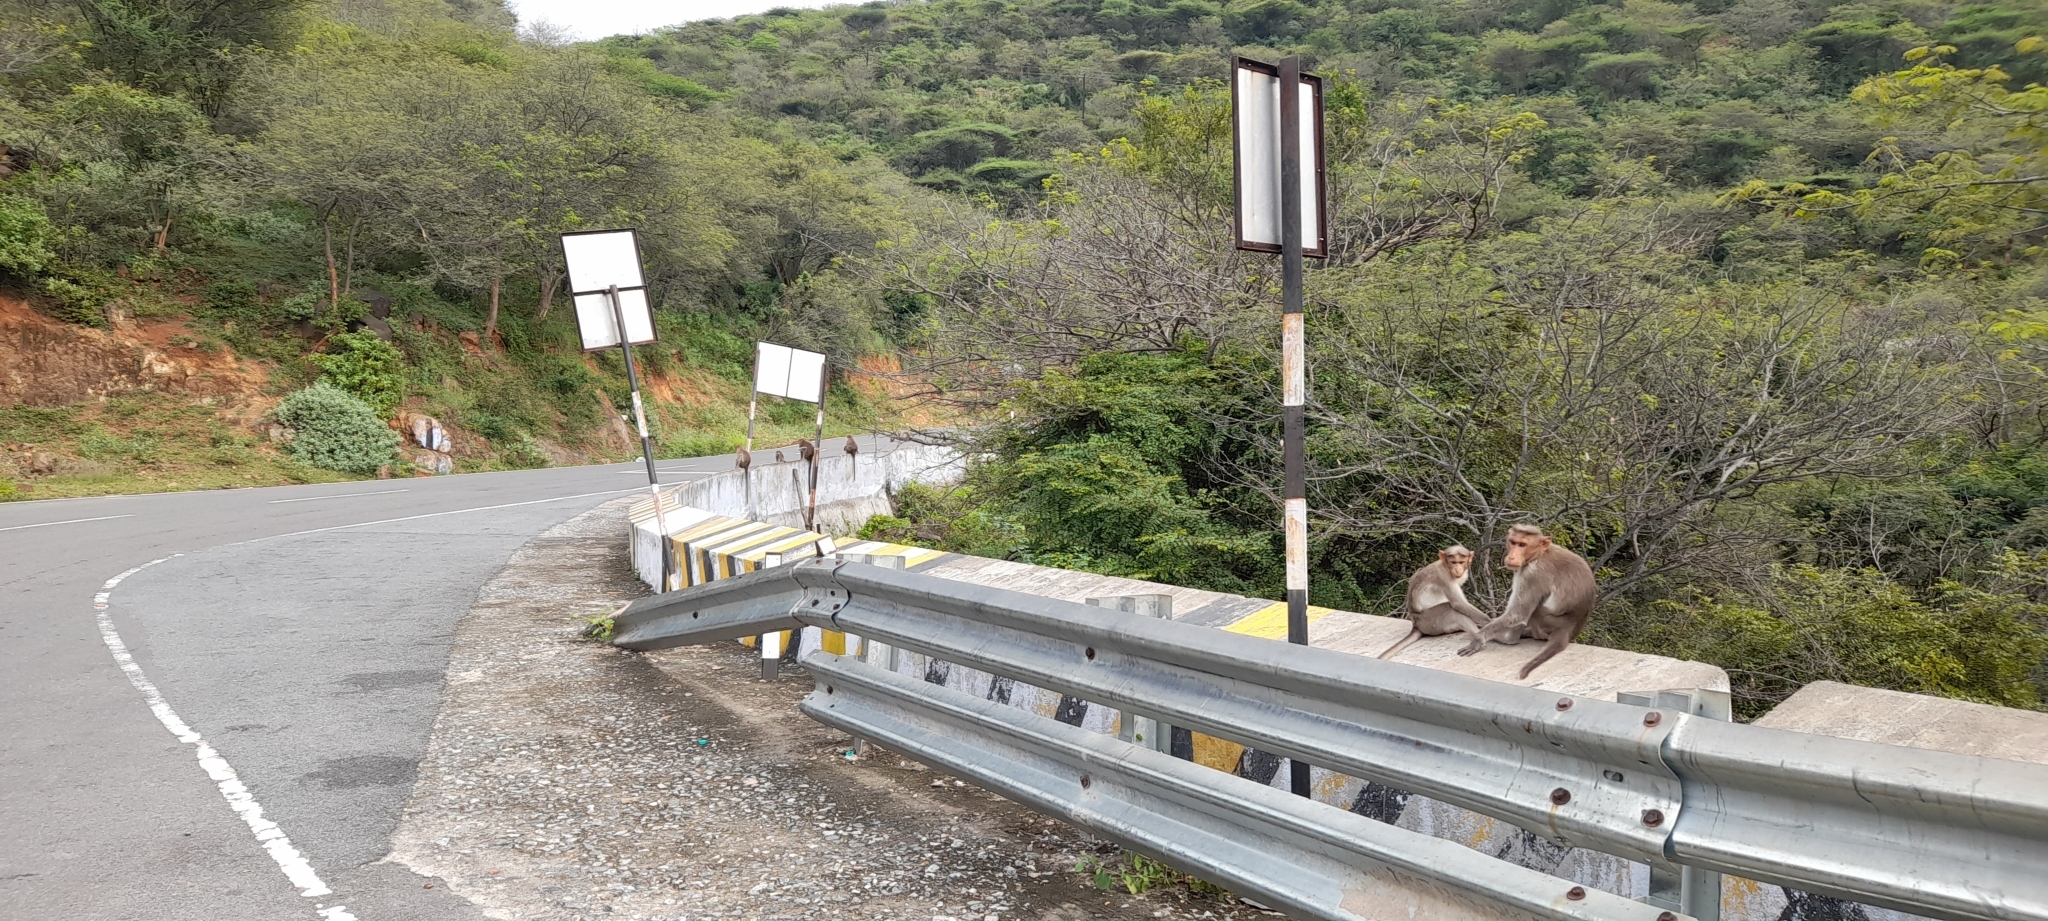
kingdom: Animalia
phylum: Chordata
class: Mammalia
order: Primates
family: Cercopithecidae
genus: Macaca
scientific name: Macaca radiata
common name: Bonnet macaque
